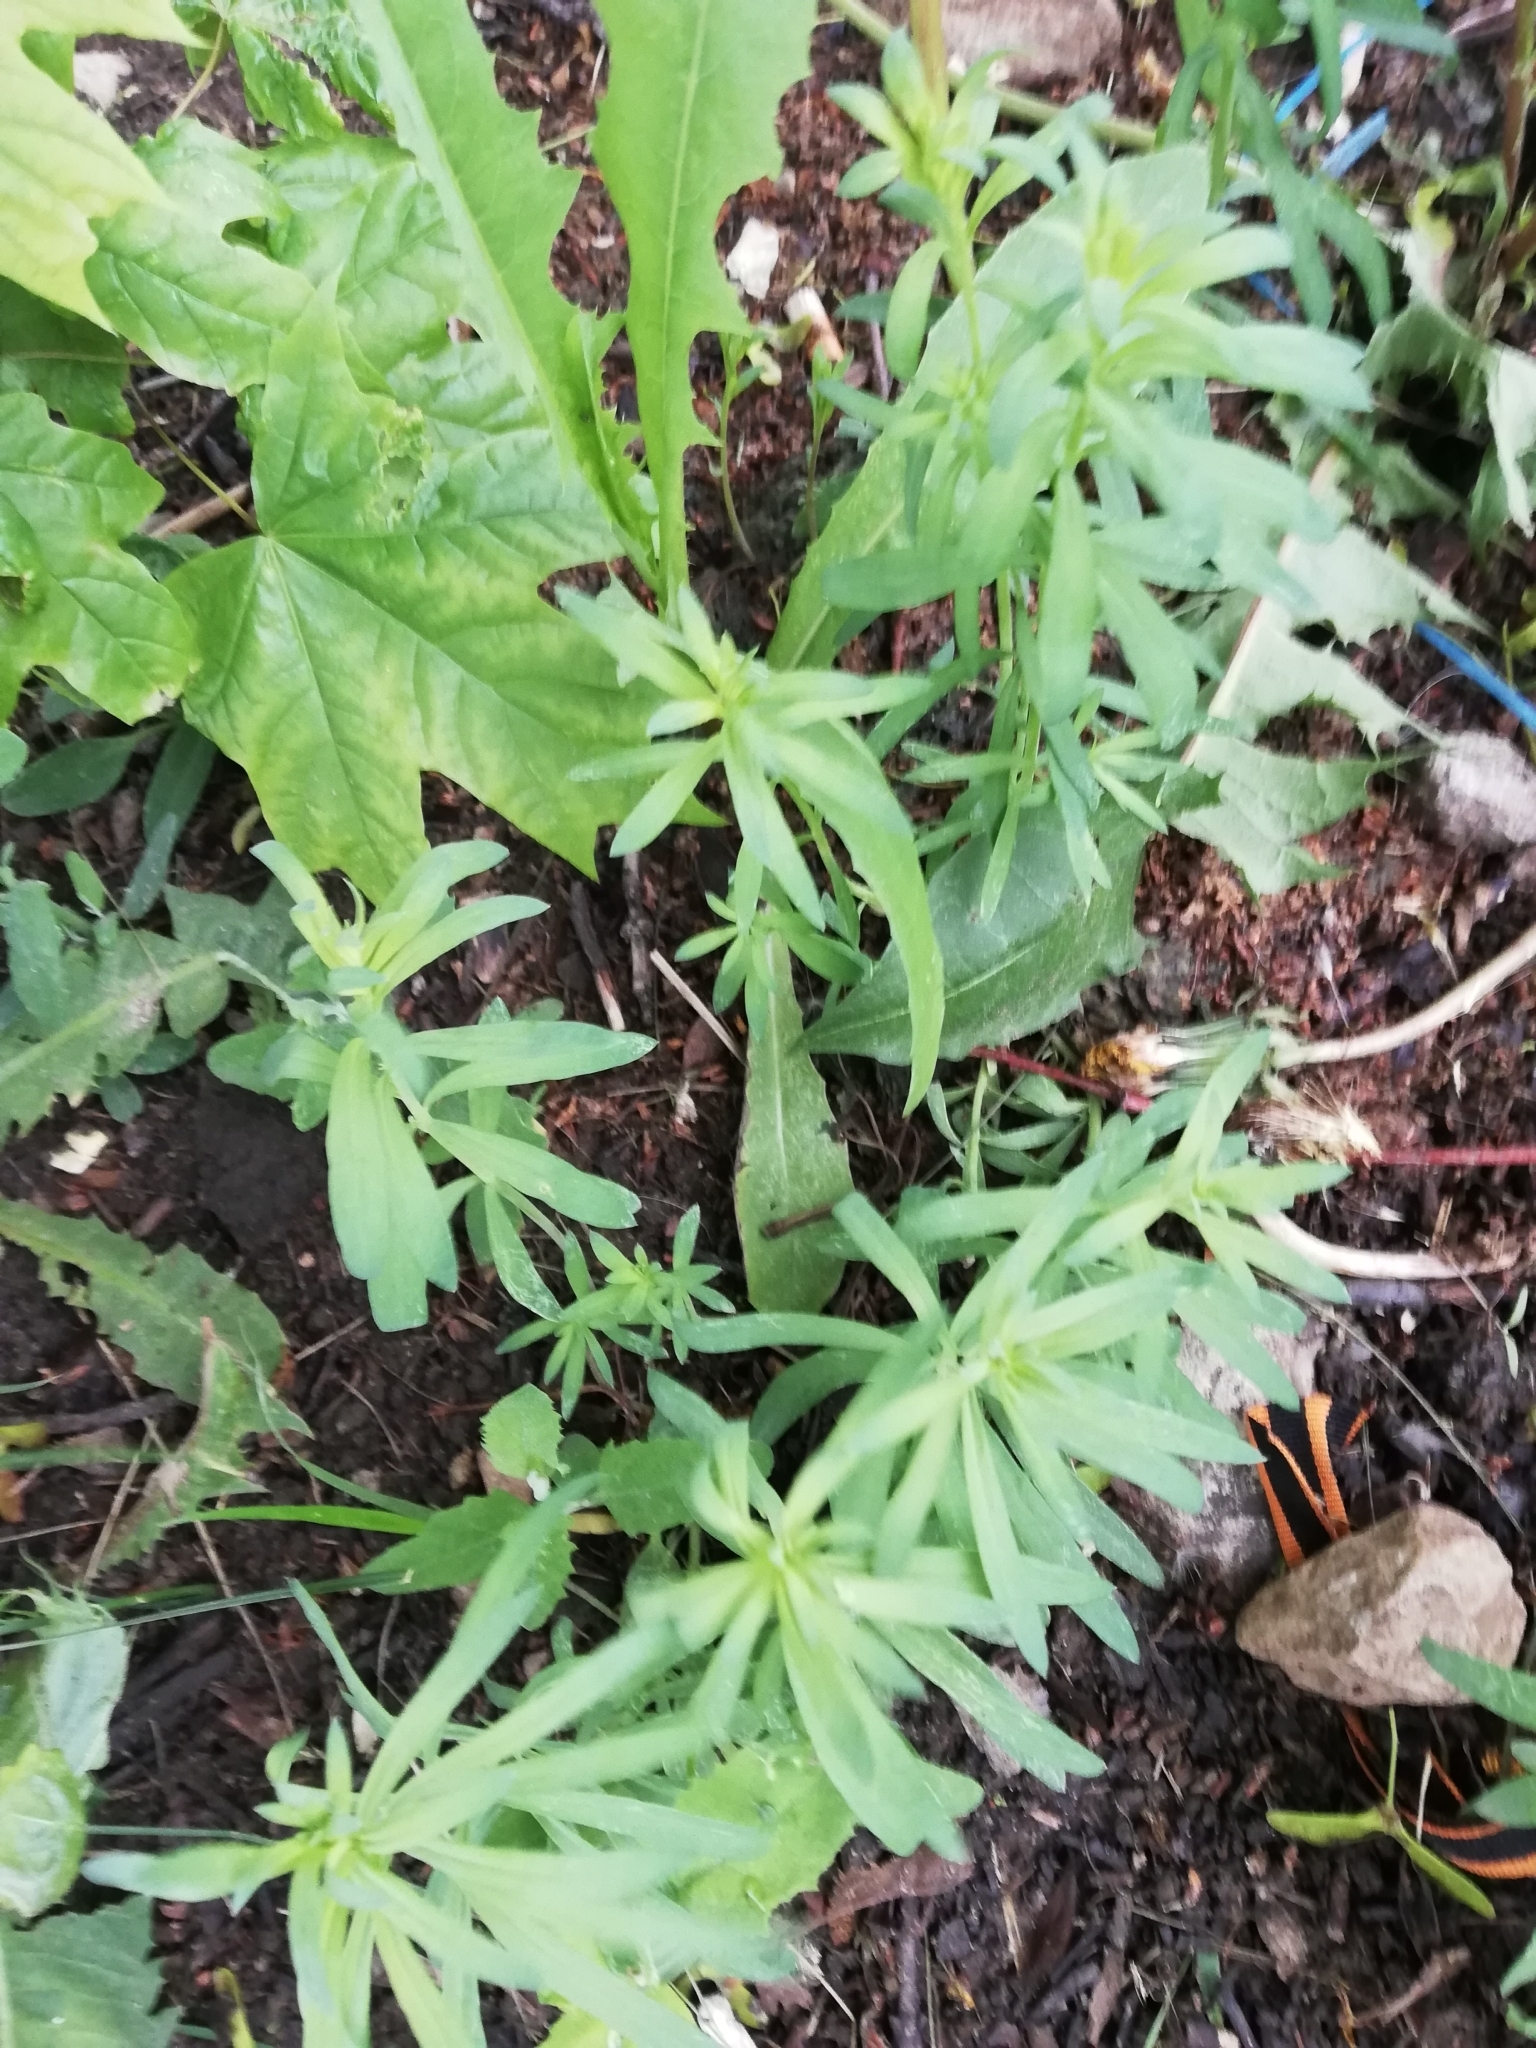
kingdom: Plantae
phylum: Tracheophyta
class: Magnoliopsida
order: Lamiales
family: Plantaginaceae
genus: Linaria
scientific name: Linaria vulgaris
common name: Butter and eggs
